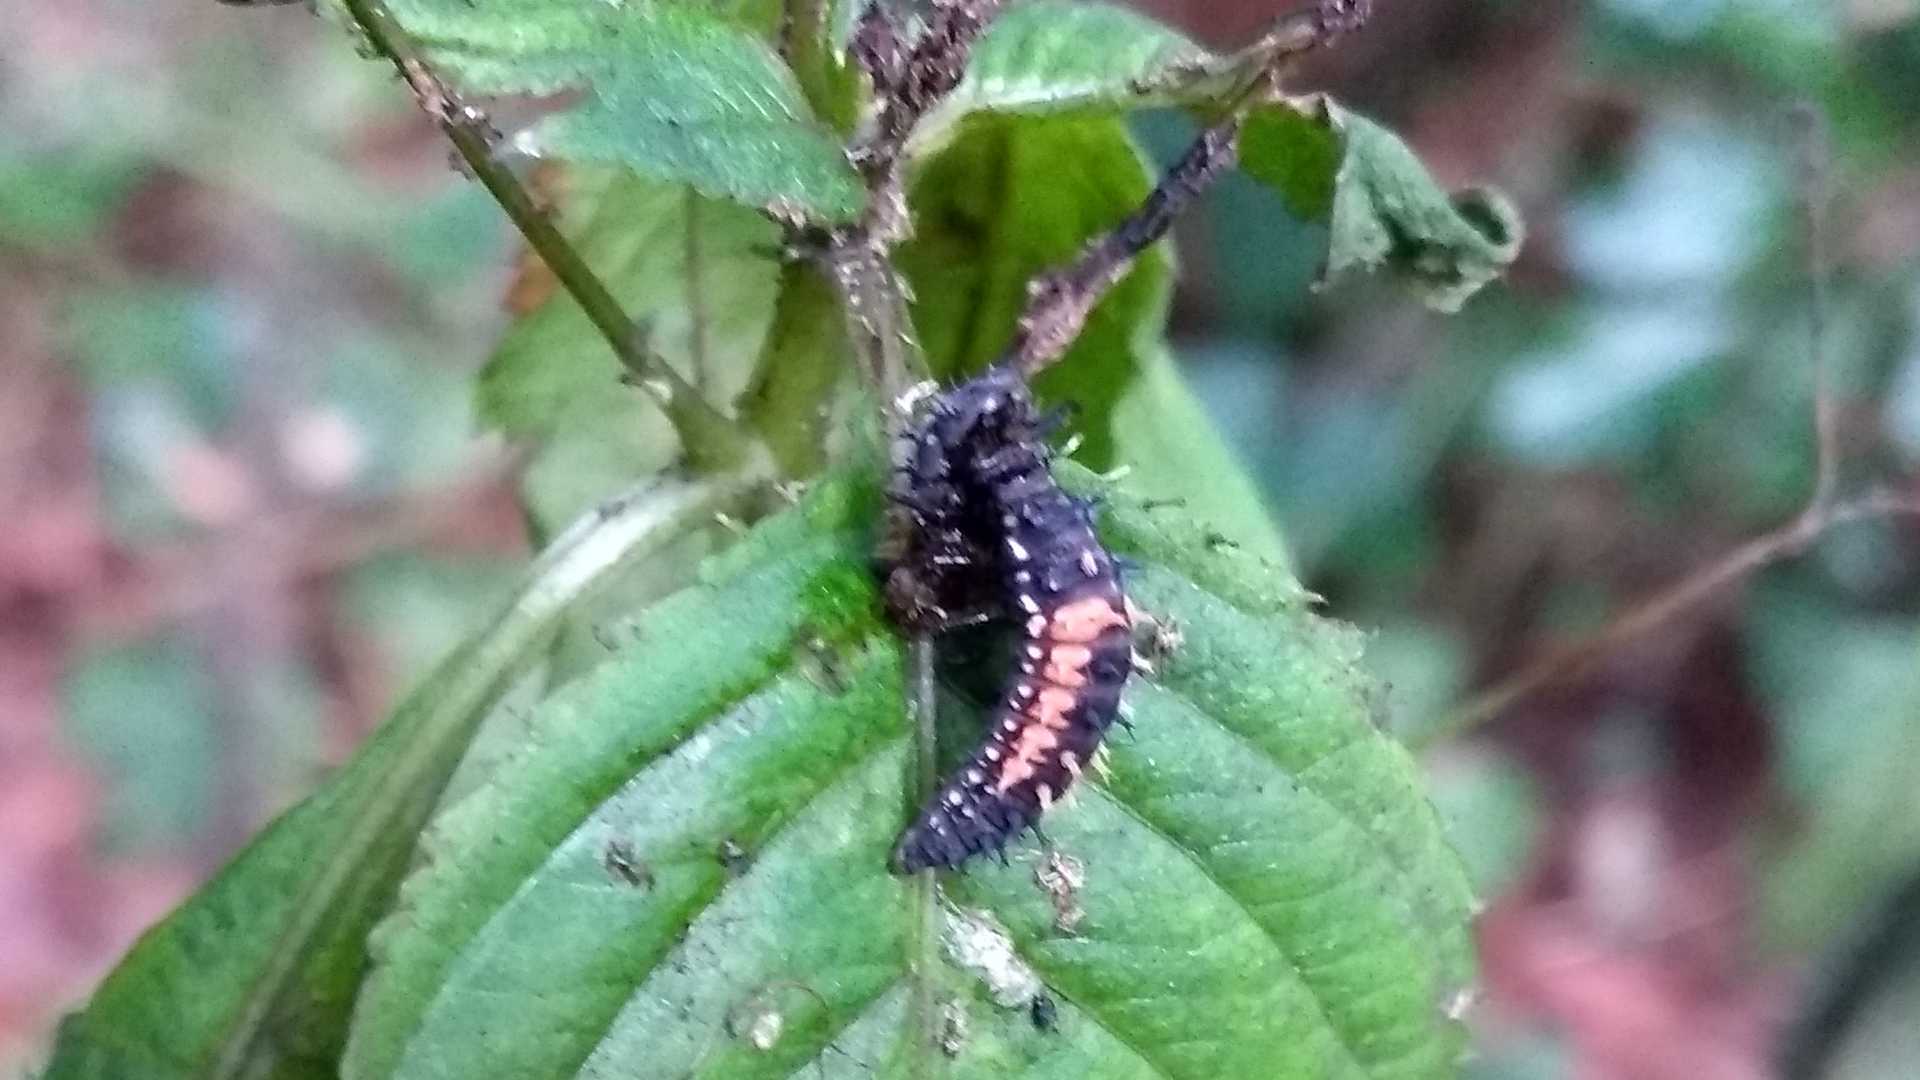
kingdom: Animalia
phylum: Arthropoda
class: Insecta
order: Coleoptera
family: Coccinellidae
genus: Harmonia
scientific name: Harmonia axyridis
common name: Harlequin ladybird
